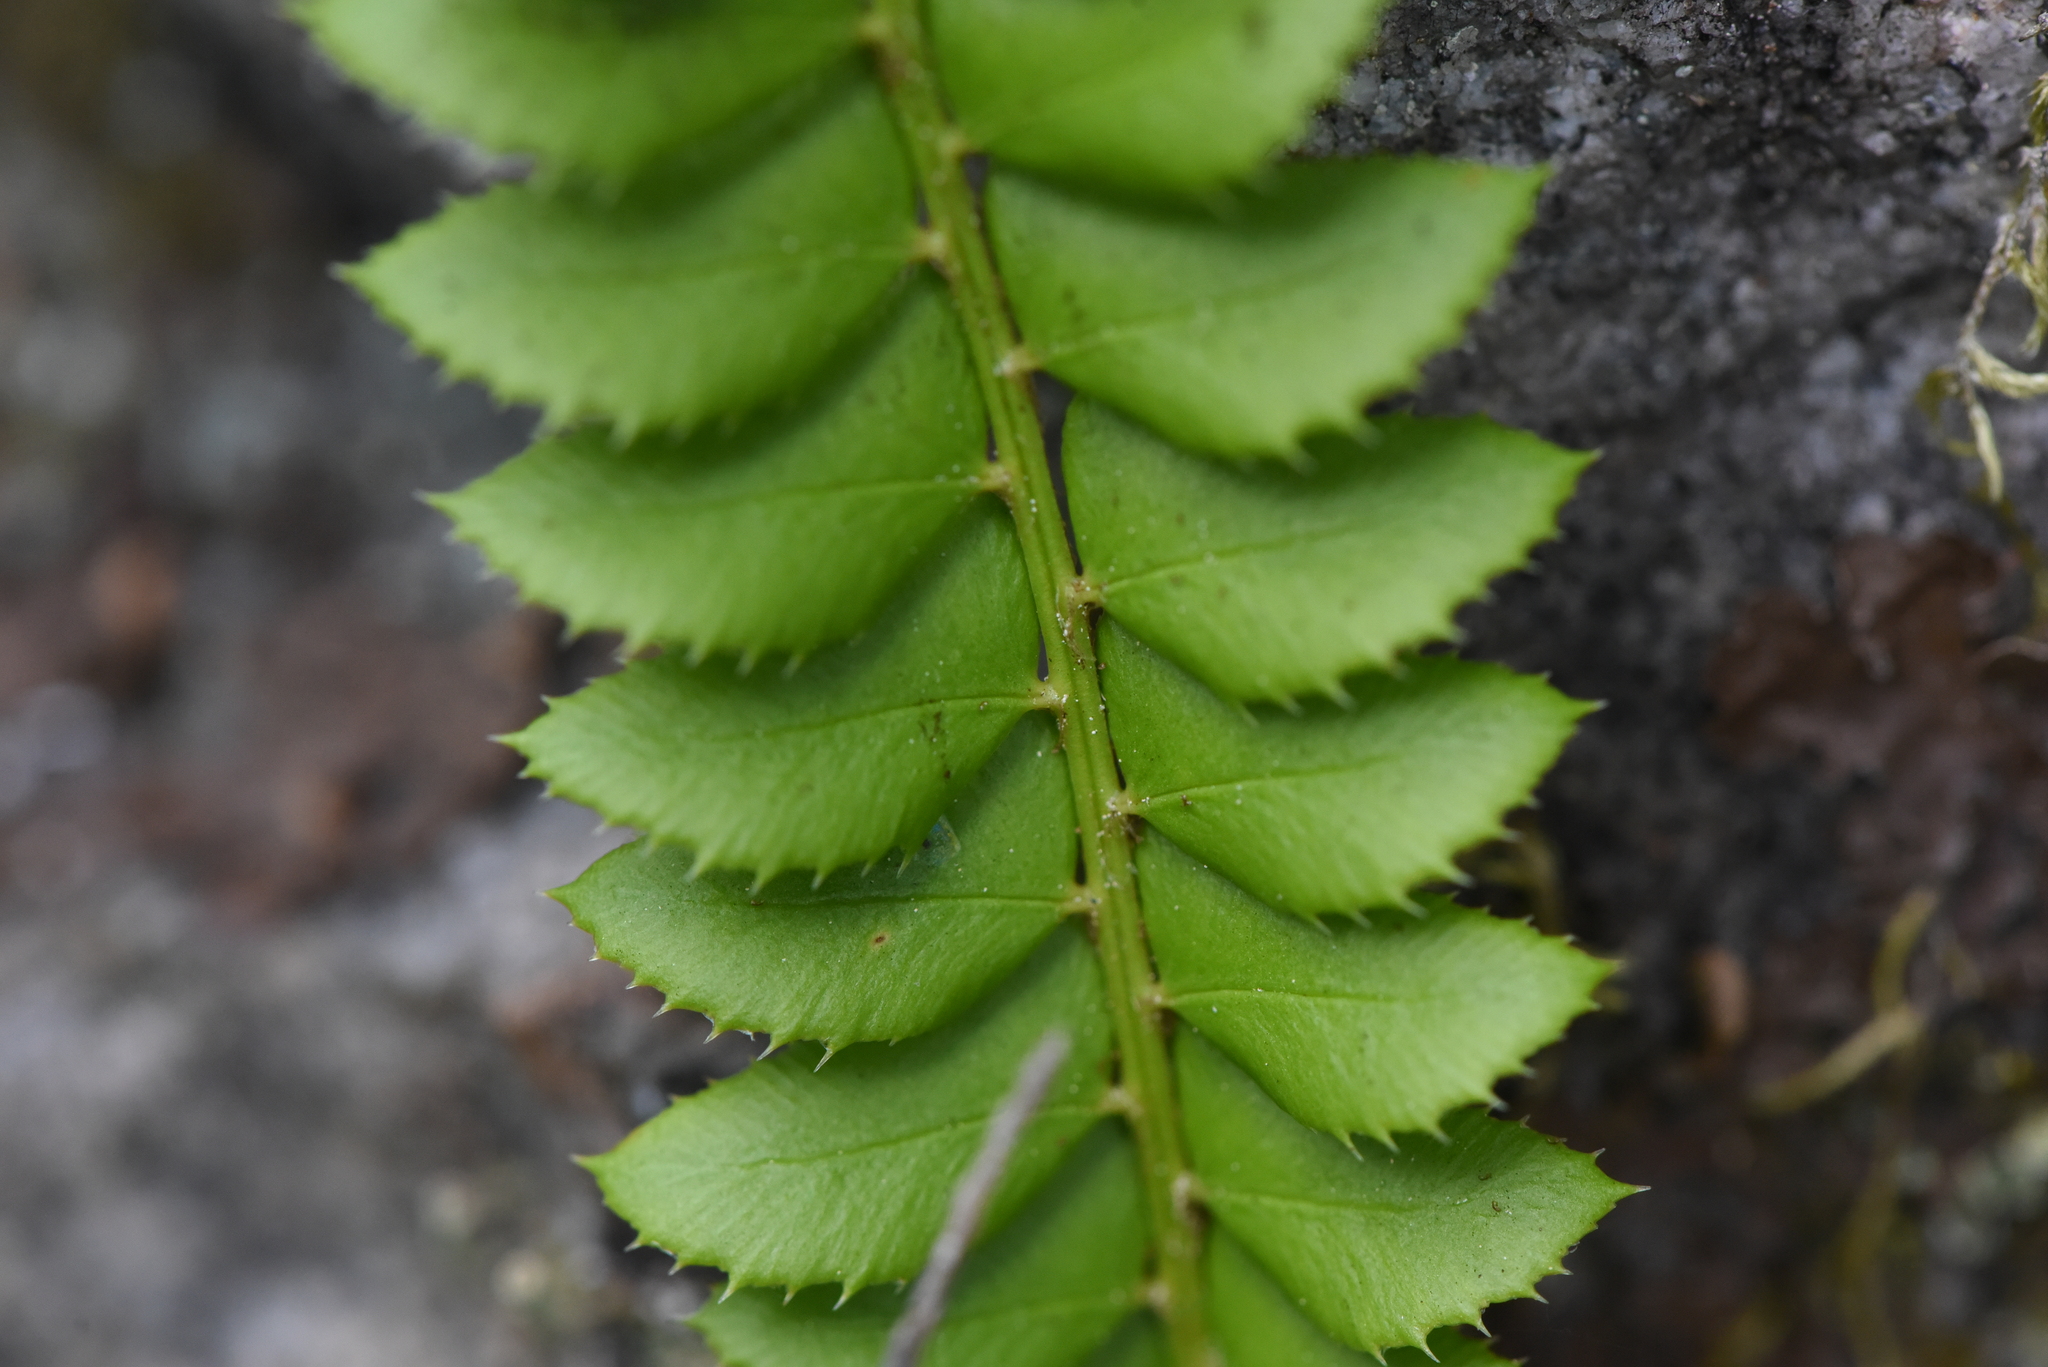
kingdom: Plantae
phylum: Tracheophyta
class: Polypodiopsida
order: Polypodiales
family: Dryopteridaceae
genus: Polystichum
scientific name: Polystichum lonchitis
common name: Holly fern
